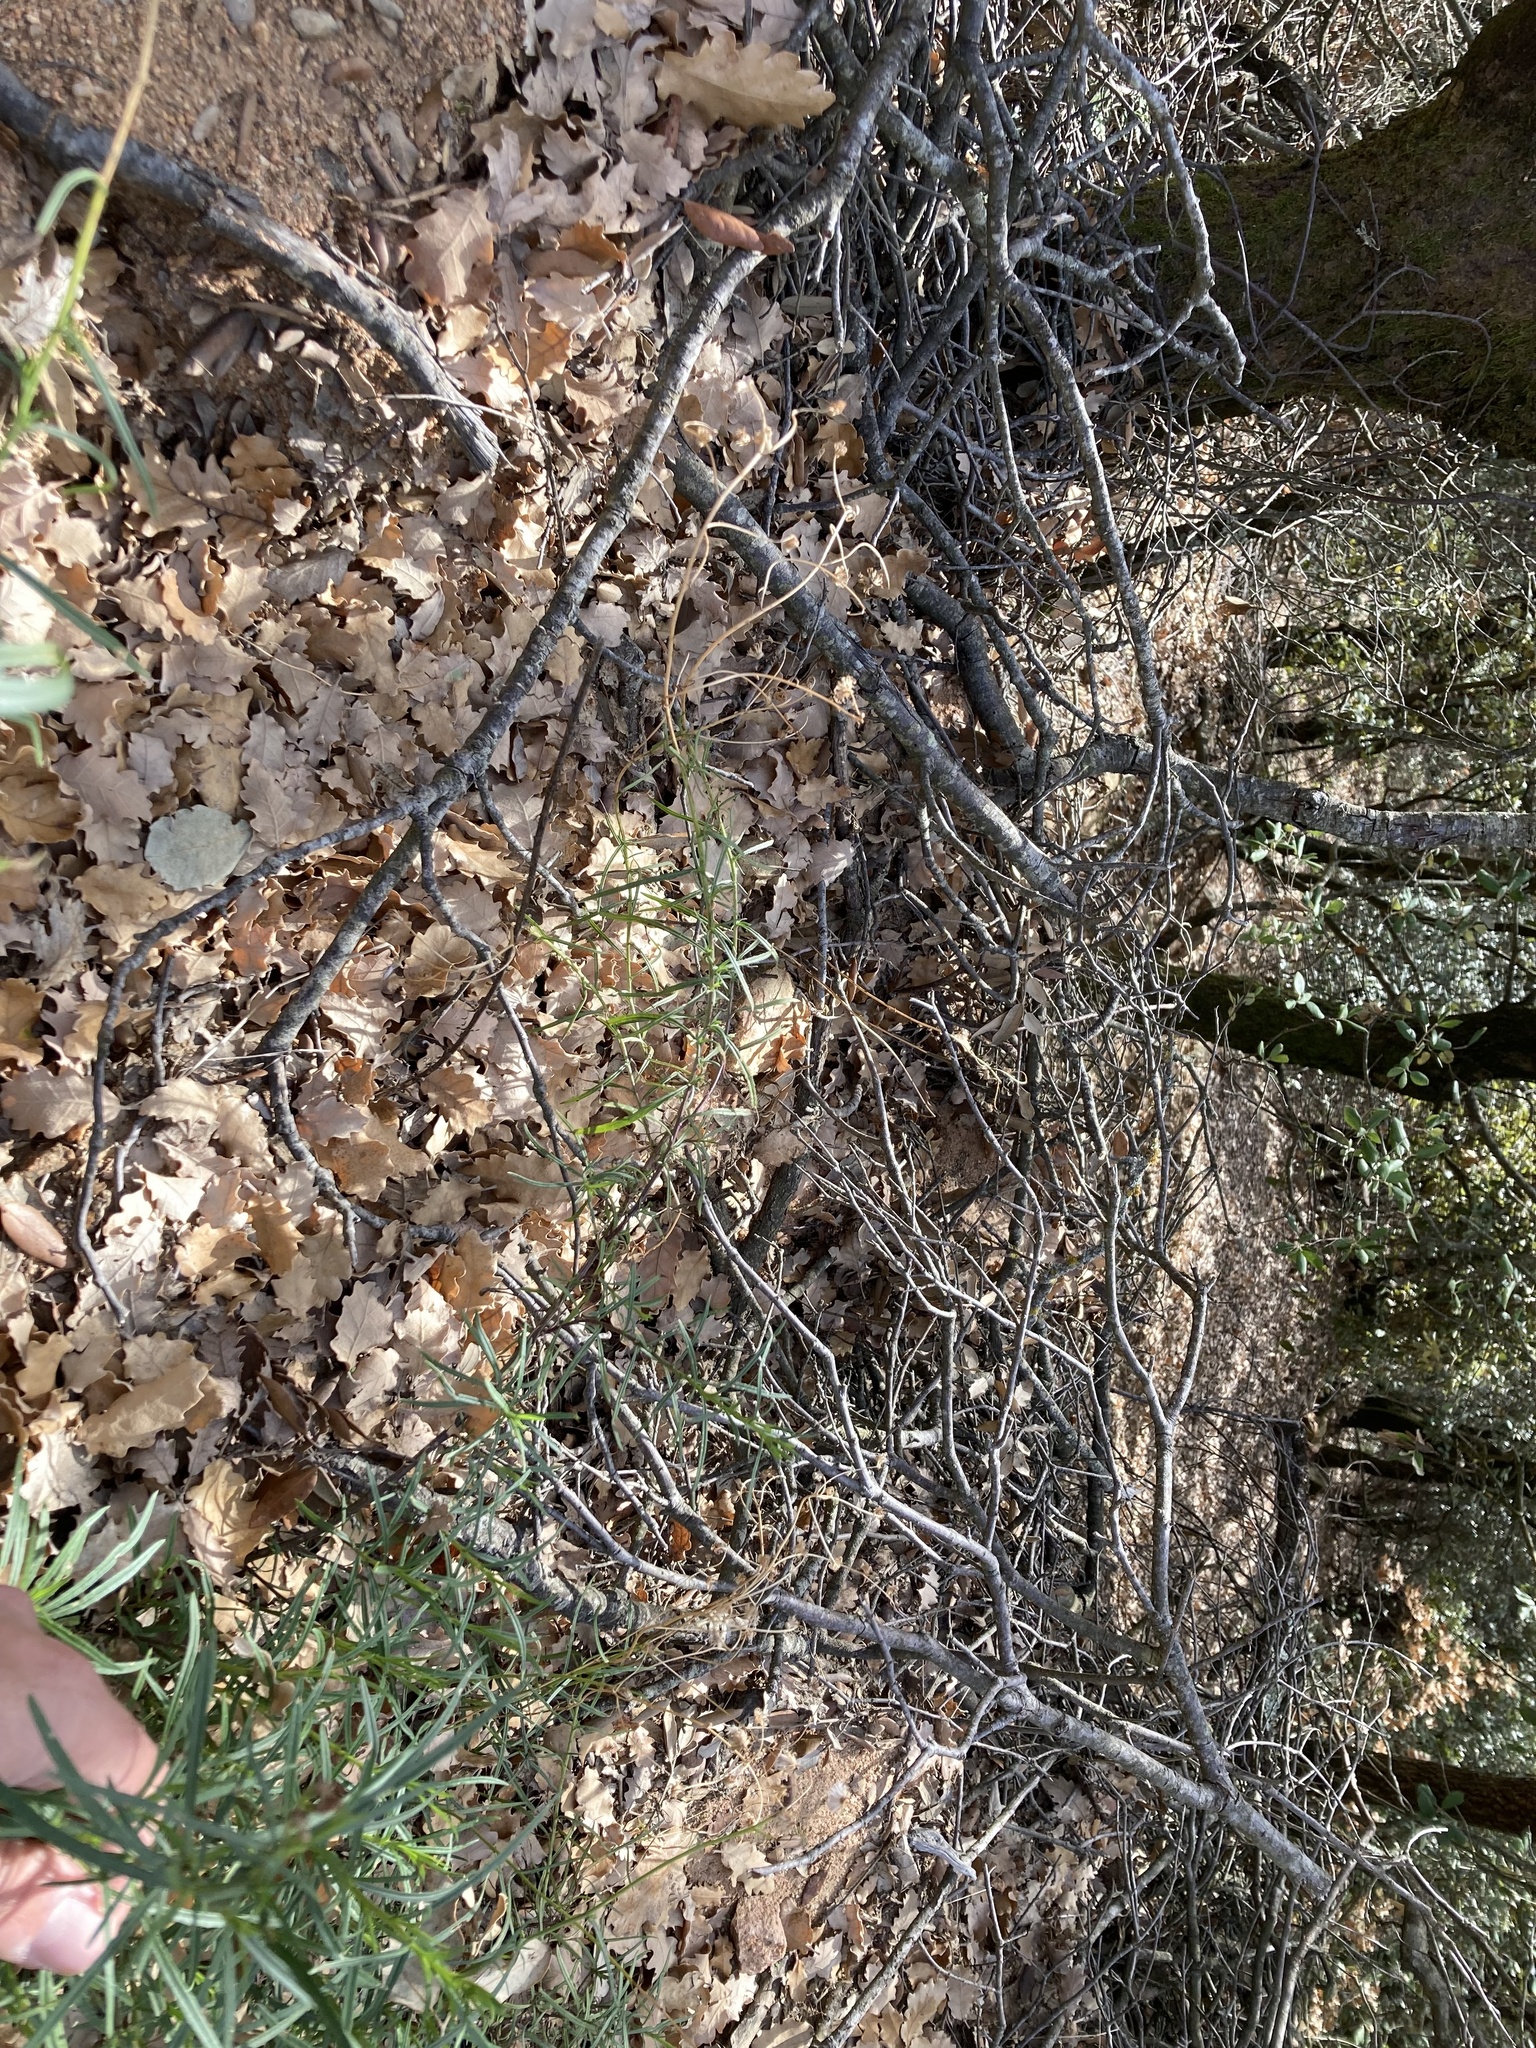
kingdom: Plantae
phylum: Tracheophyta
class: Magnoliopsida
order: Asterales
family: Asteraceae
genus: Senecio
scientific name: Senecio inaequidens
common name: Narrow-leaved ragwort
